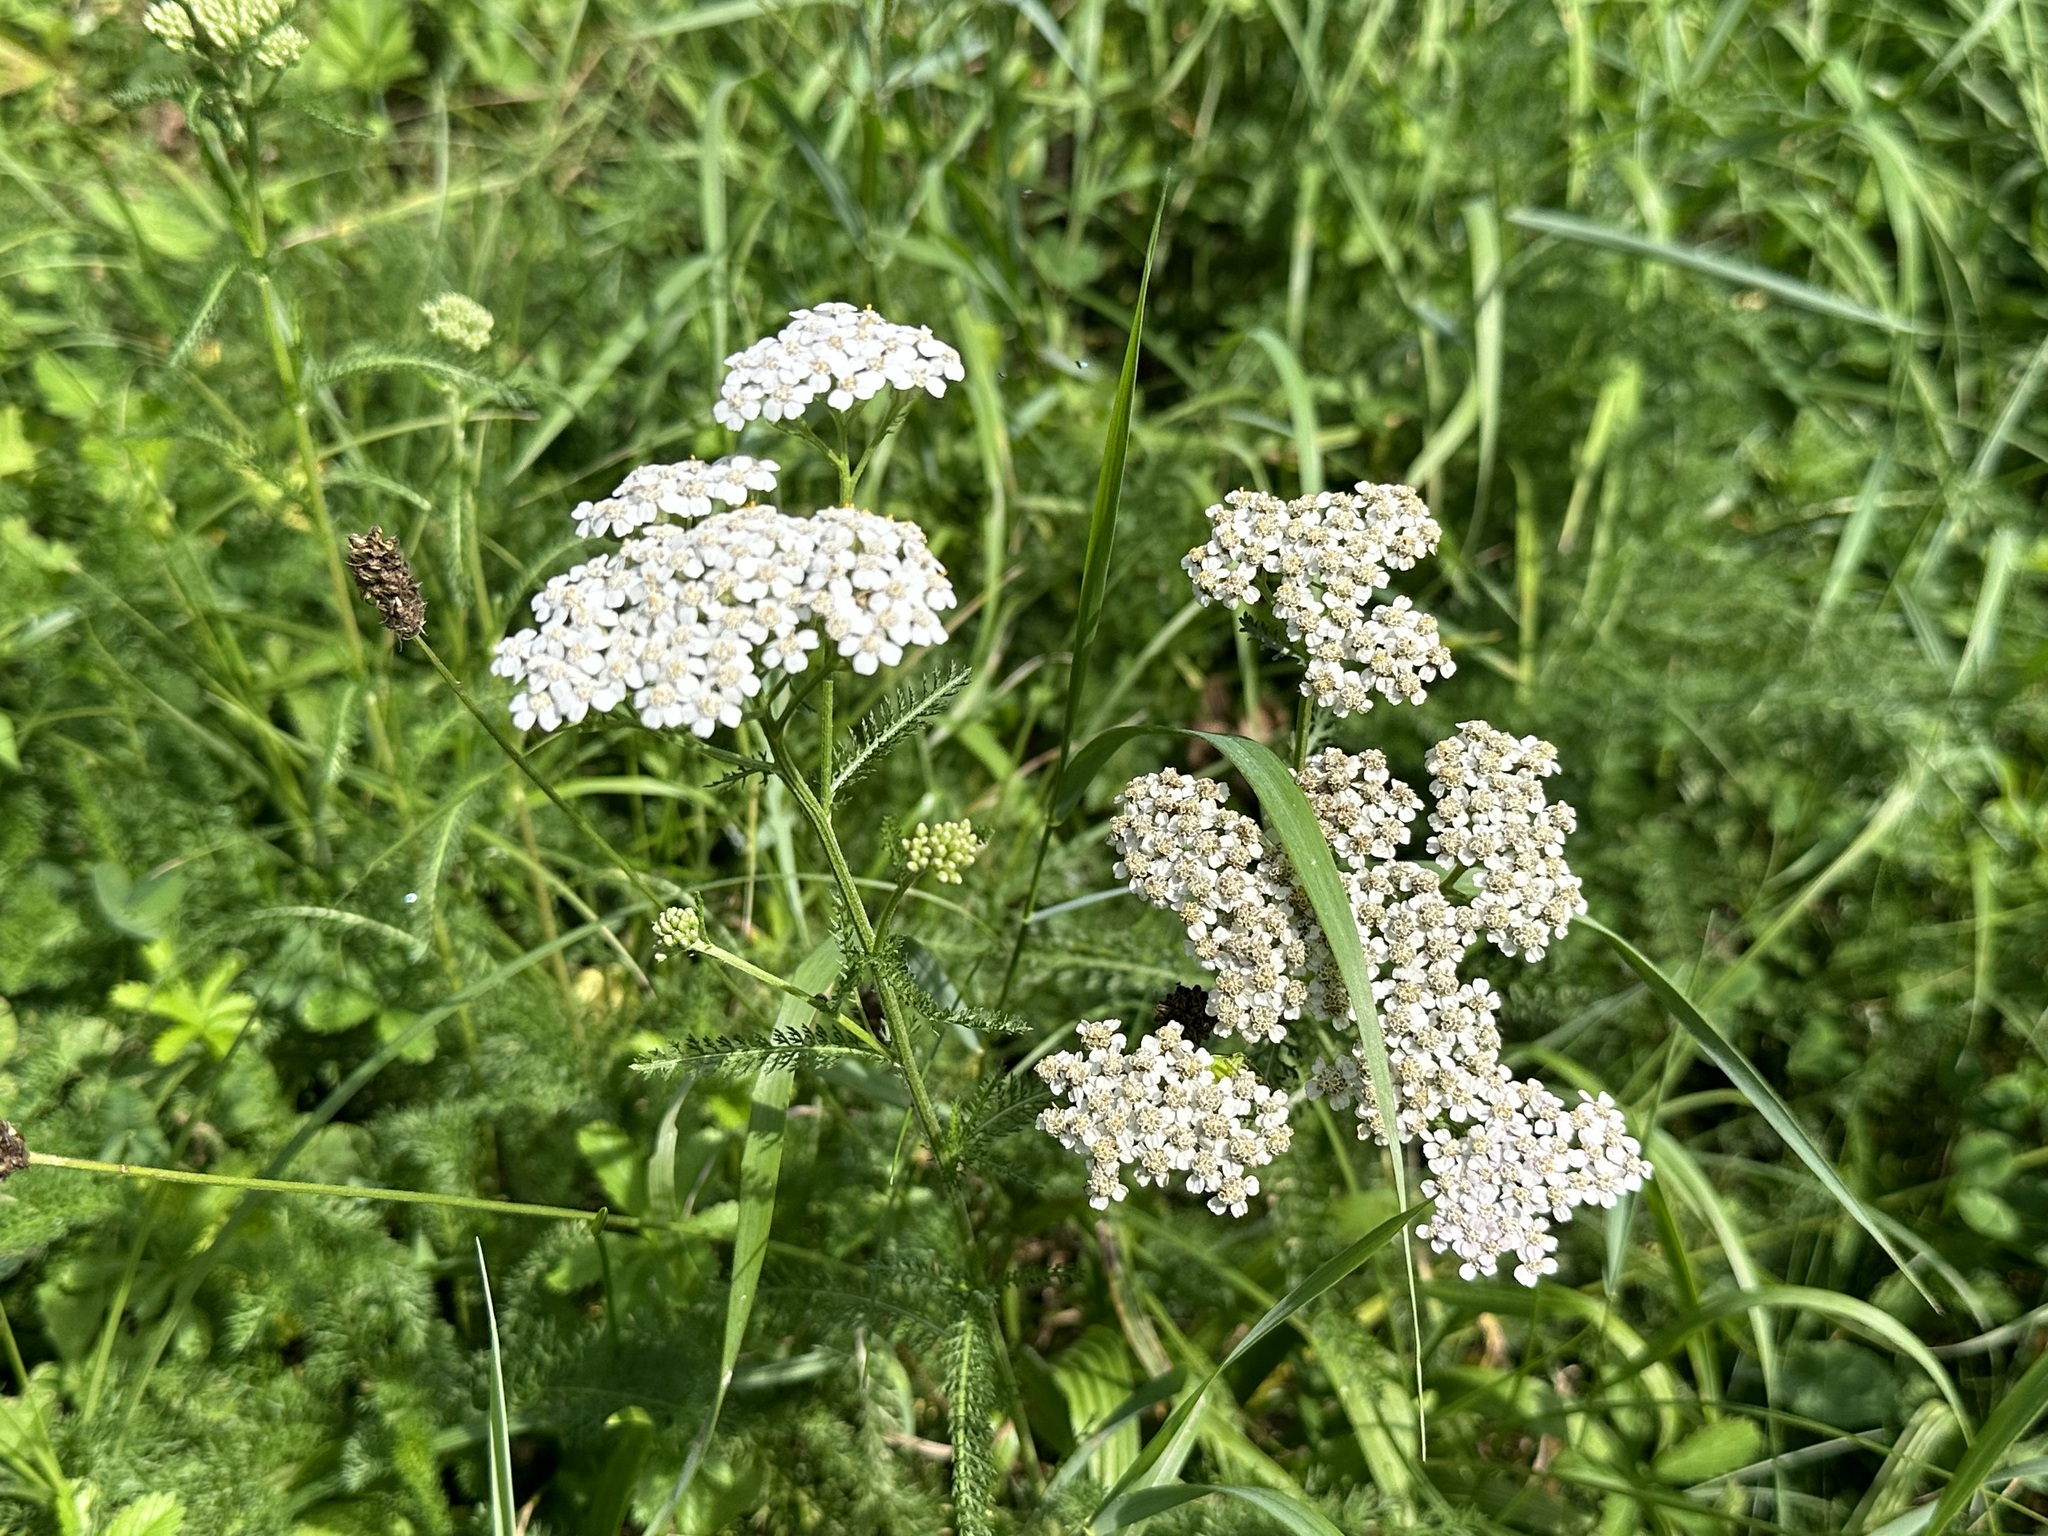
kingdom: Plantae
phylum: Tracheophyta
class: Magnoliopsida
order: Asterales
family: Asteraceae
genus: Achillea
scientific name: Achillea millefolium
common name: Yarrow
